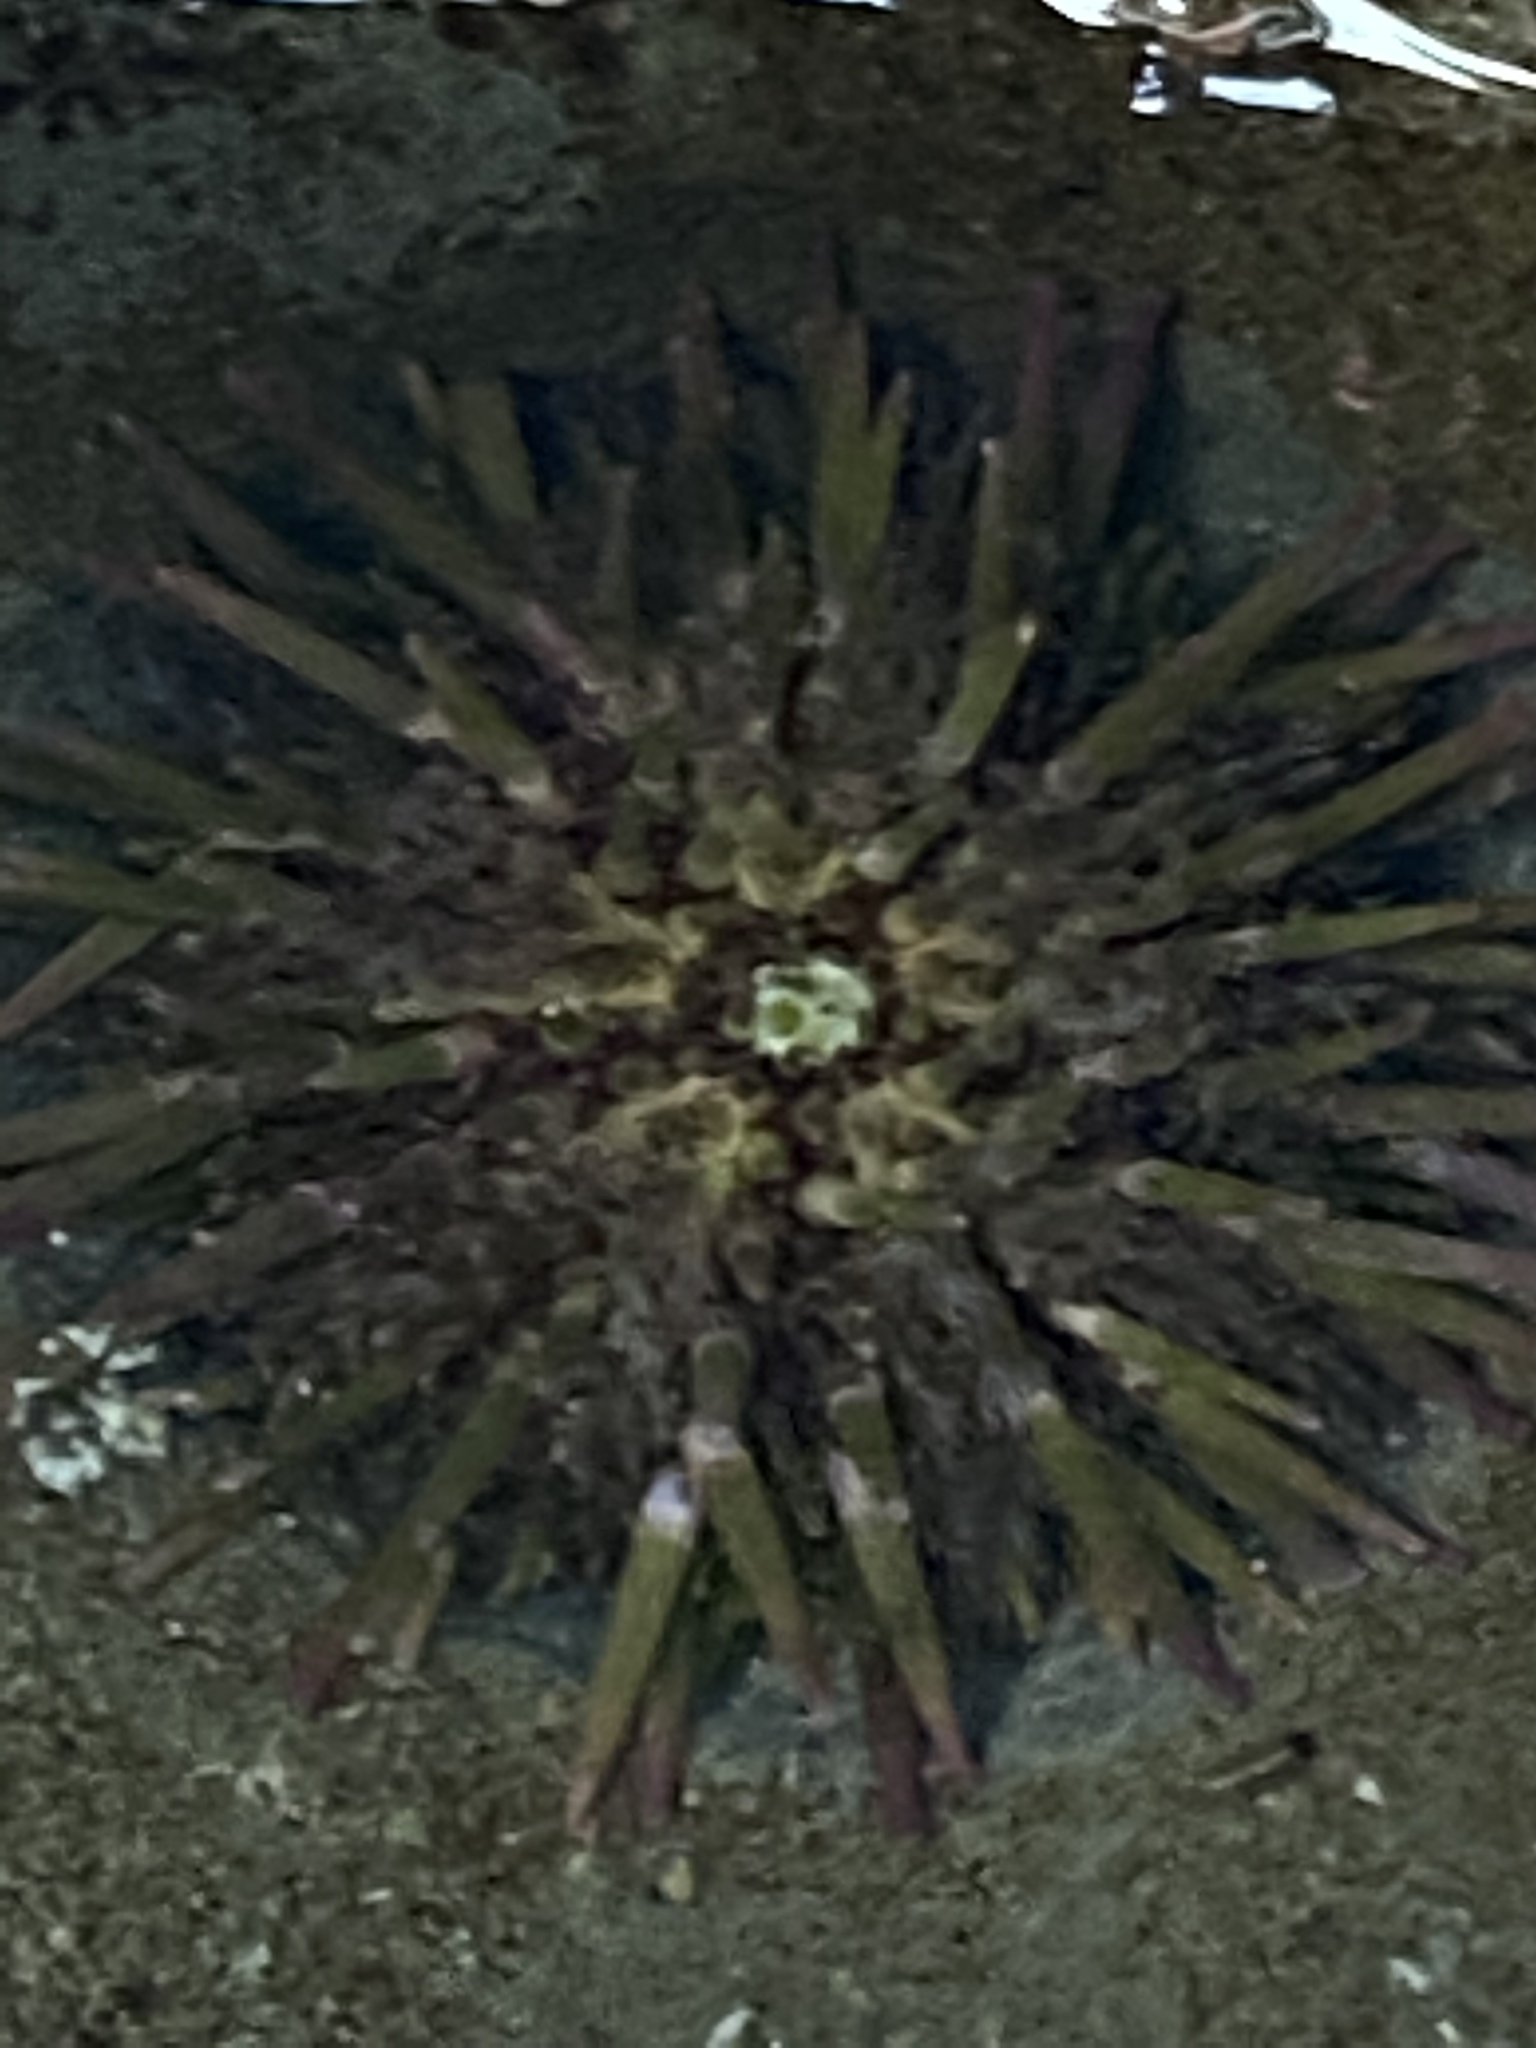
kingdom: Animalia
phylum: Echinodermata
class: Echinoidea
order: Camarodonta
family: Strongylocentrotidae
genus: Strongylocentrotus
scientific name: Strongylocentrotus purpuratus
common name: Purple sea urchin
